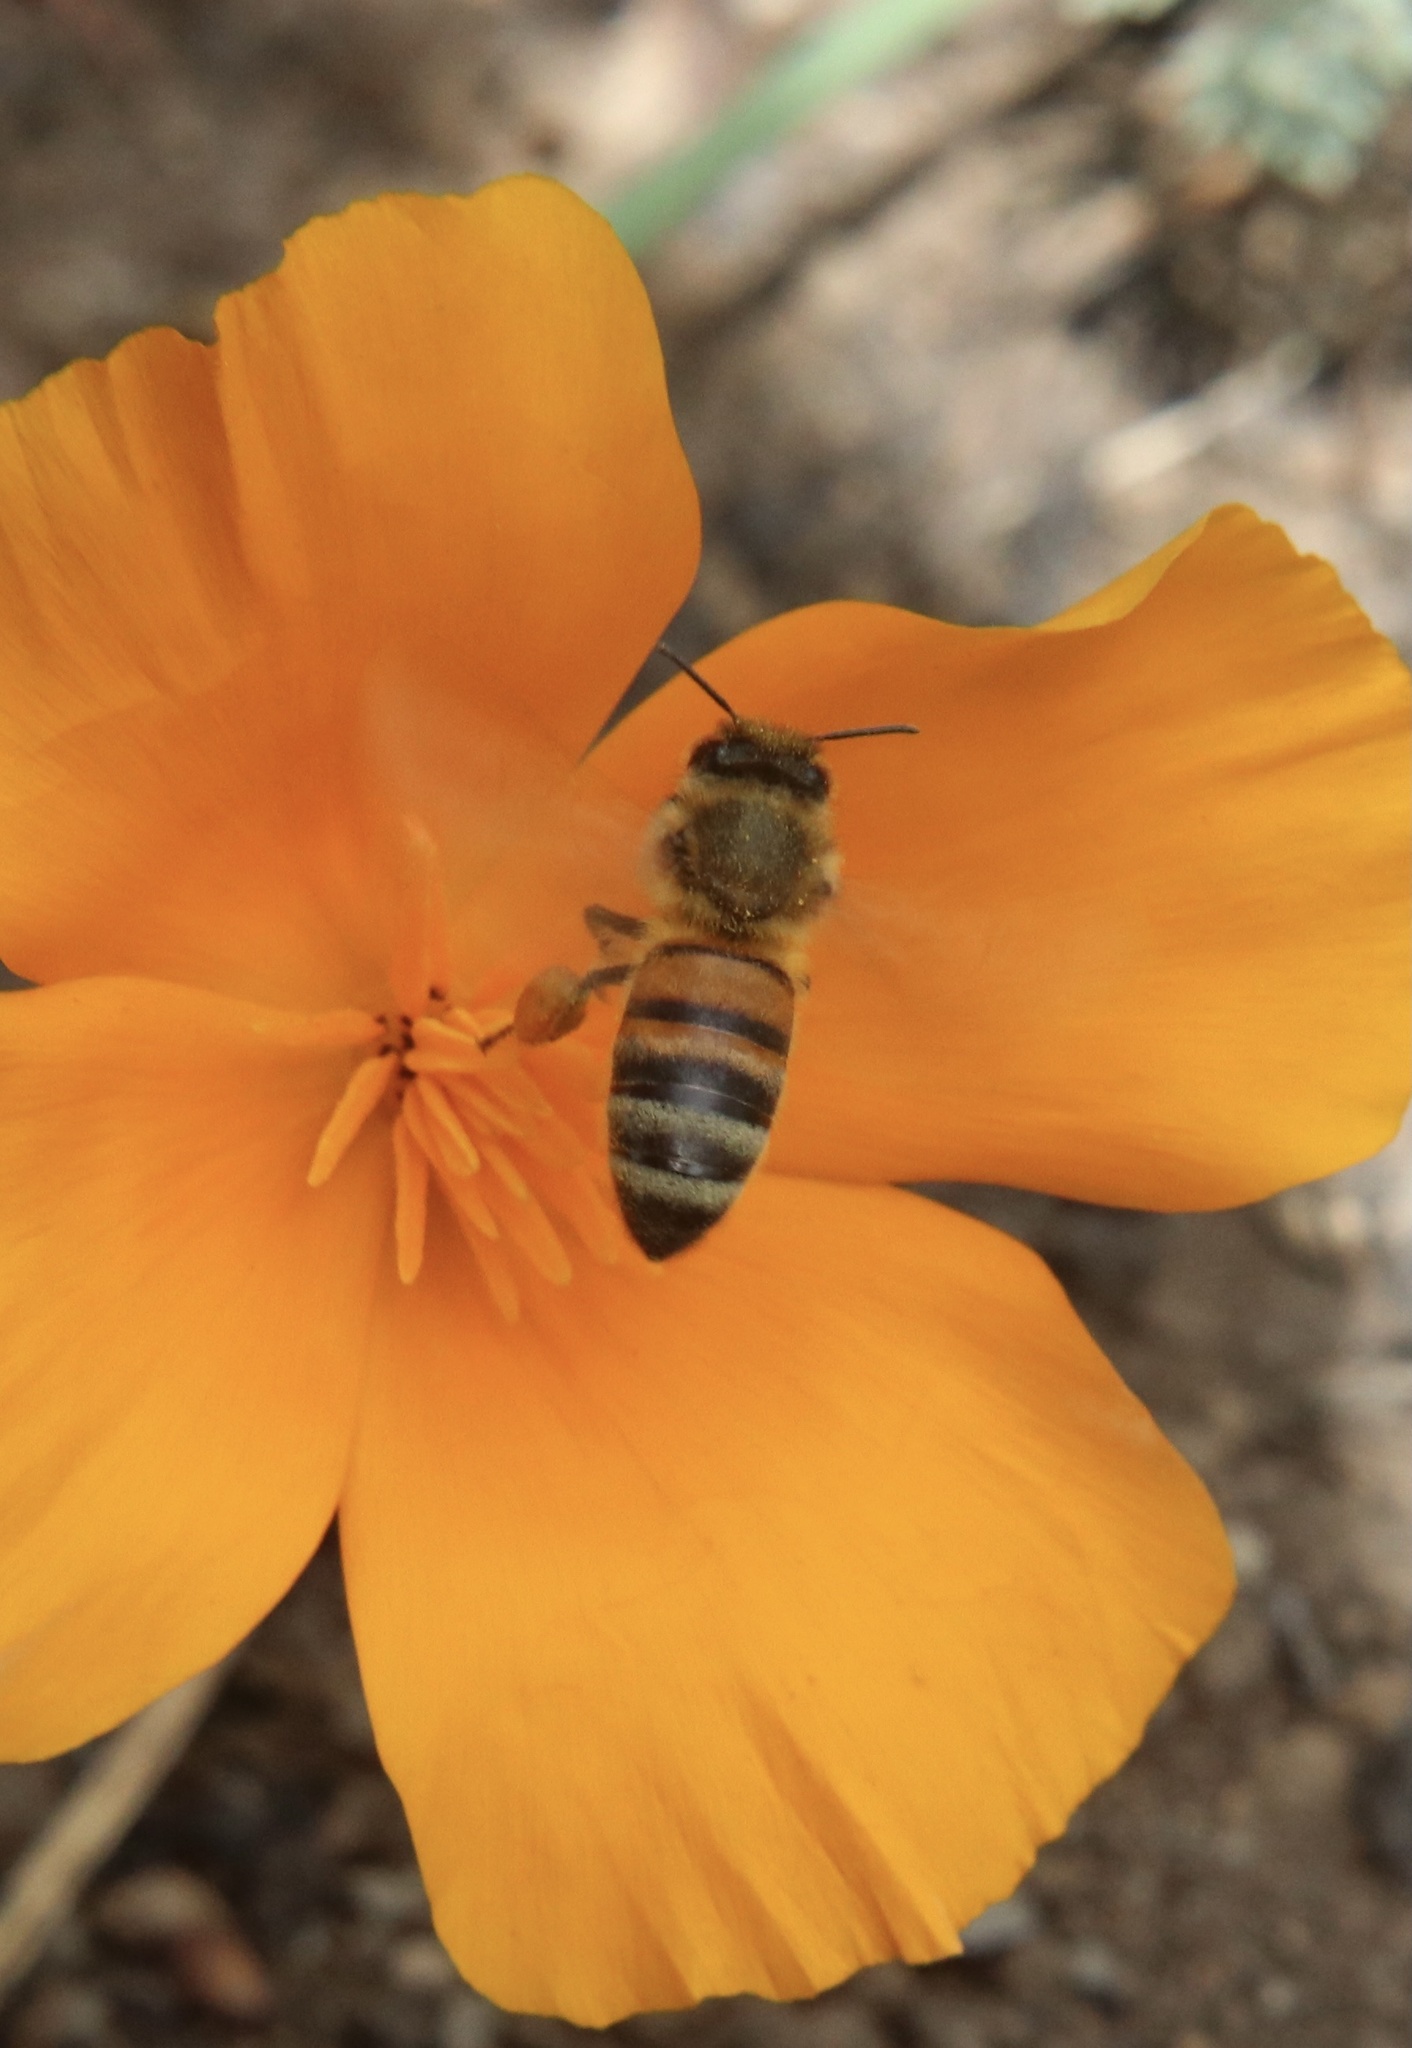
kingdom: Animalia
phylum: Arthropoda
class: Insecta
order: Hymenoptera
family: Apidae
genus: Apis
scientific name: Apis mellifera
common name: Honey bee
